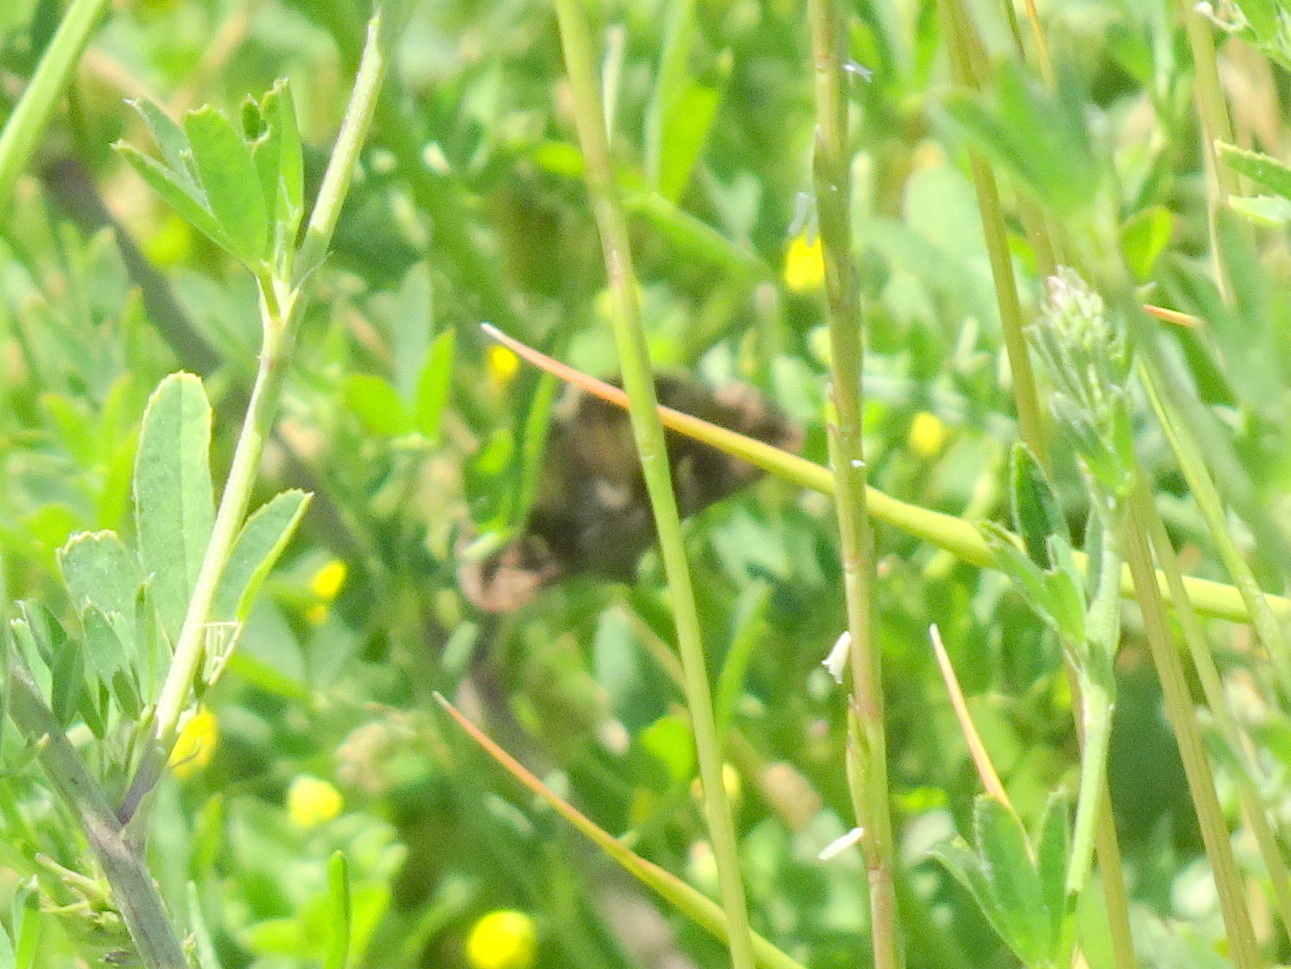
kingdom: Animalia
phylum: Arthropoda
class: Insecta
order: Lepidoptera
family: Noctuidae
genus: Autographa
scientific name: Autographa gamma
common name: Silver y
